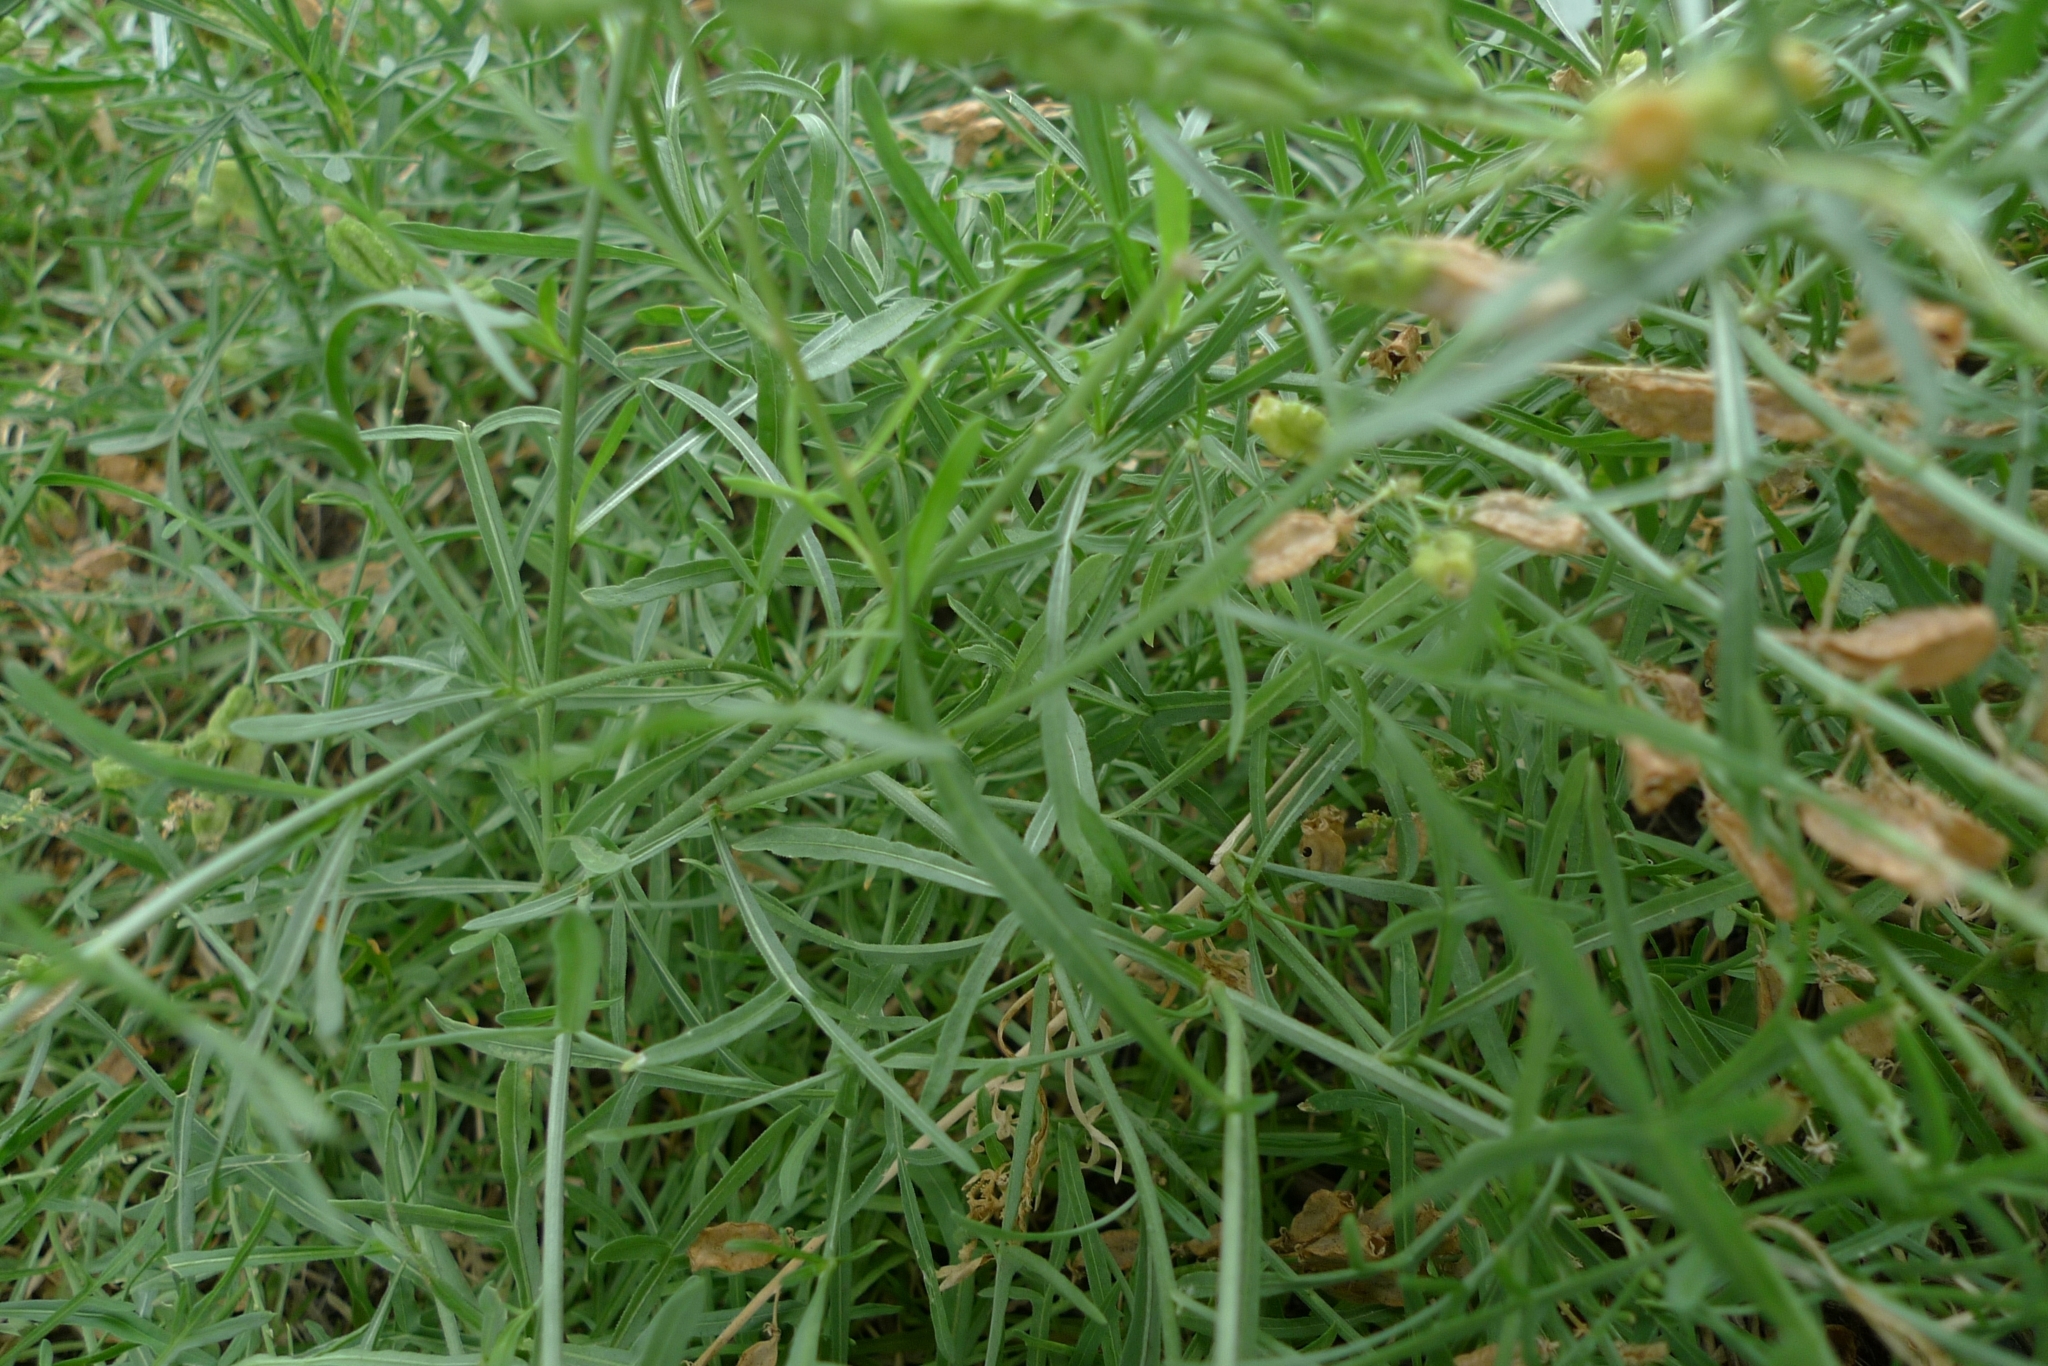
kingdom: Plantae
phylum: Tracheophyta
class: Magnoliopsida
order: Brassicales
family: Resedaceae
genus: Reseda
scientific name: Reseda lutea
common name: Wild mignonette
